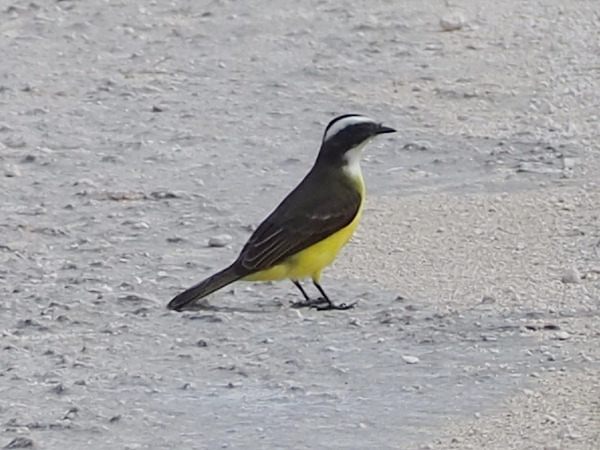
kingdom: Animalia
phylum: Chordata
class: Aves
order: Passeriformes
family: Tyrannidae
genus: Myiozetetes
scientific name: Myiozetetes similis
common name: Social flycatcher
